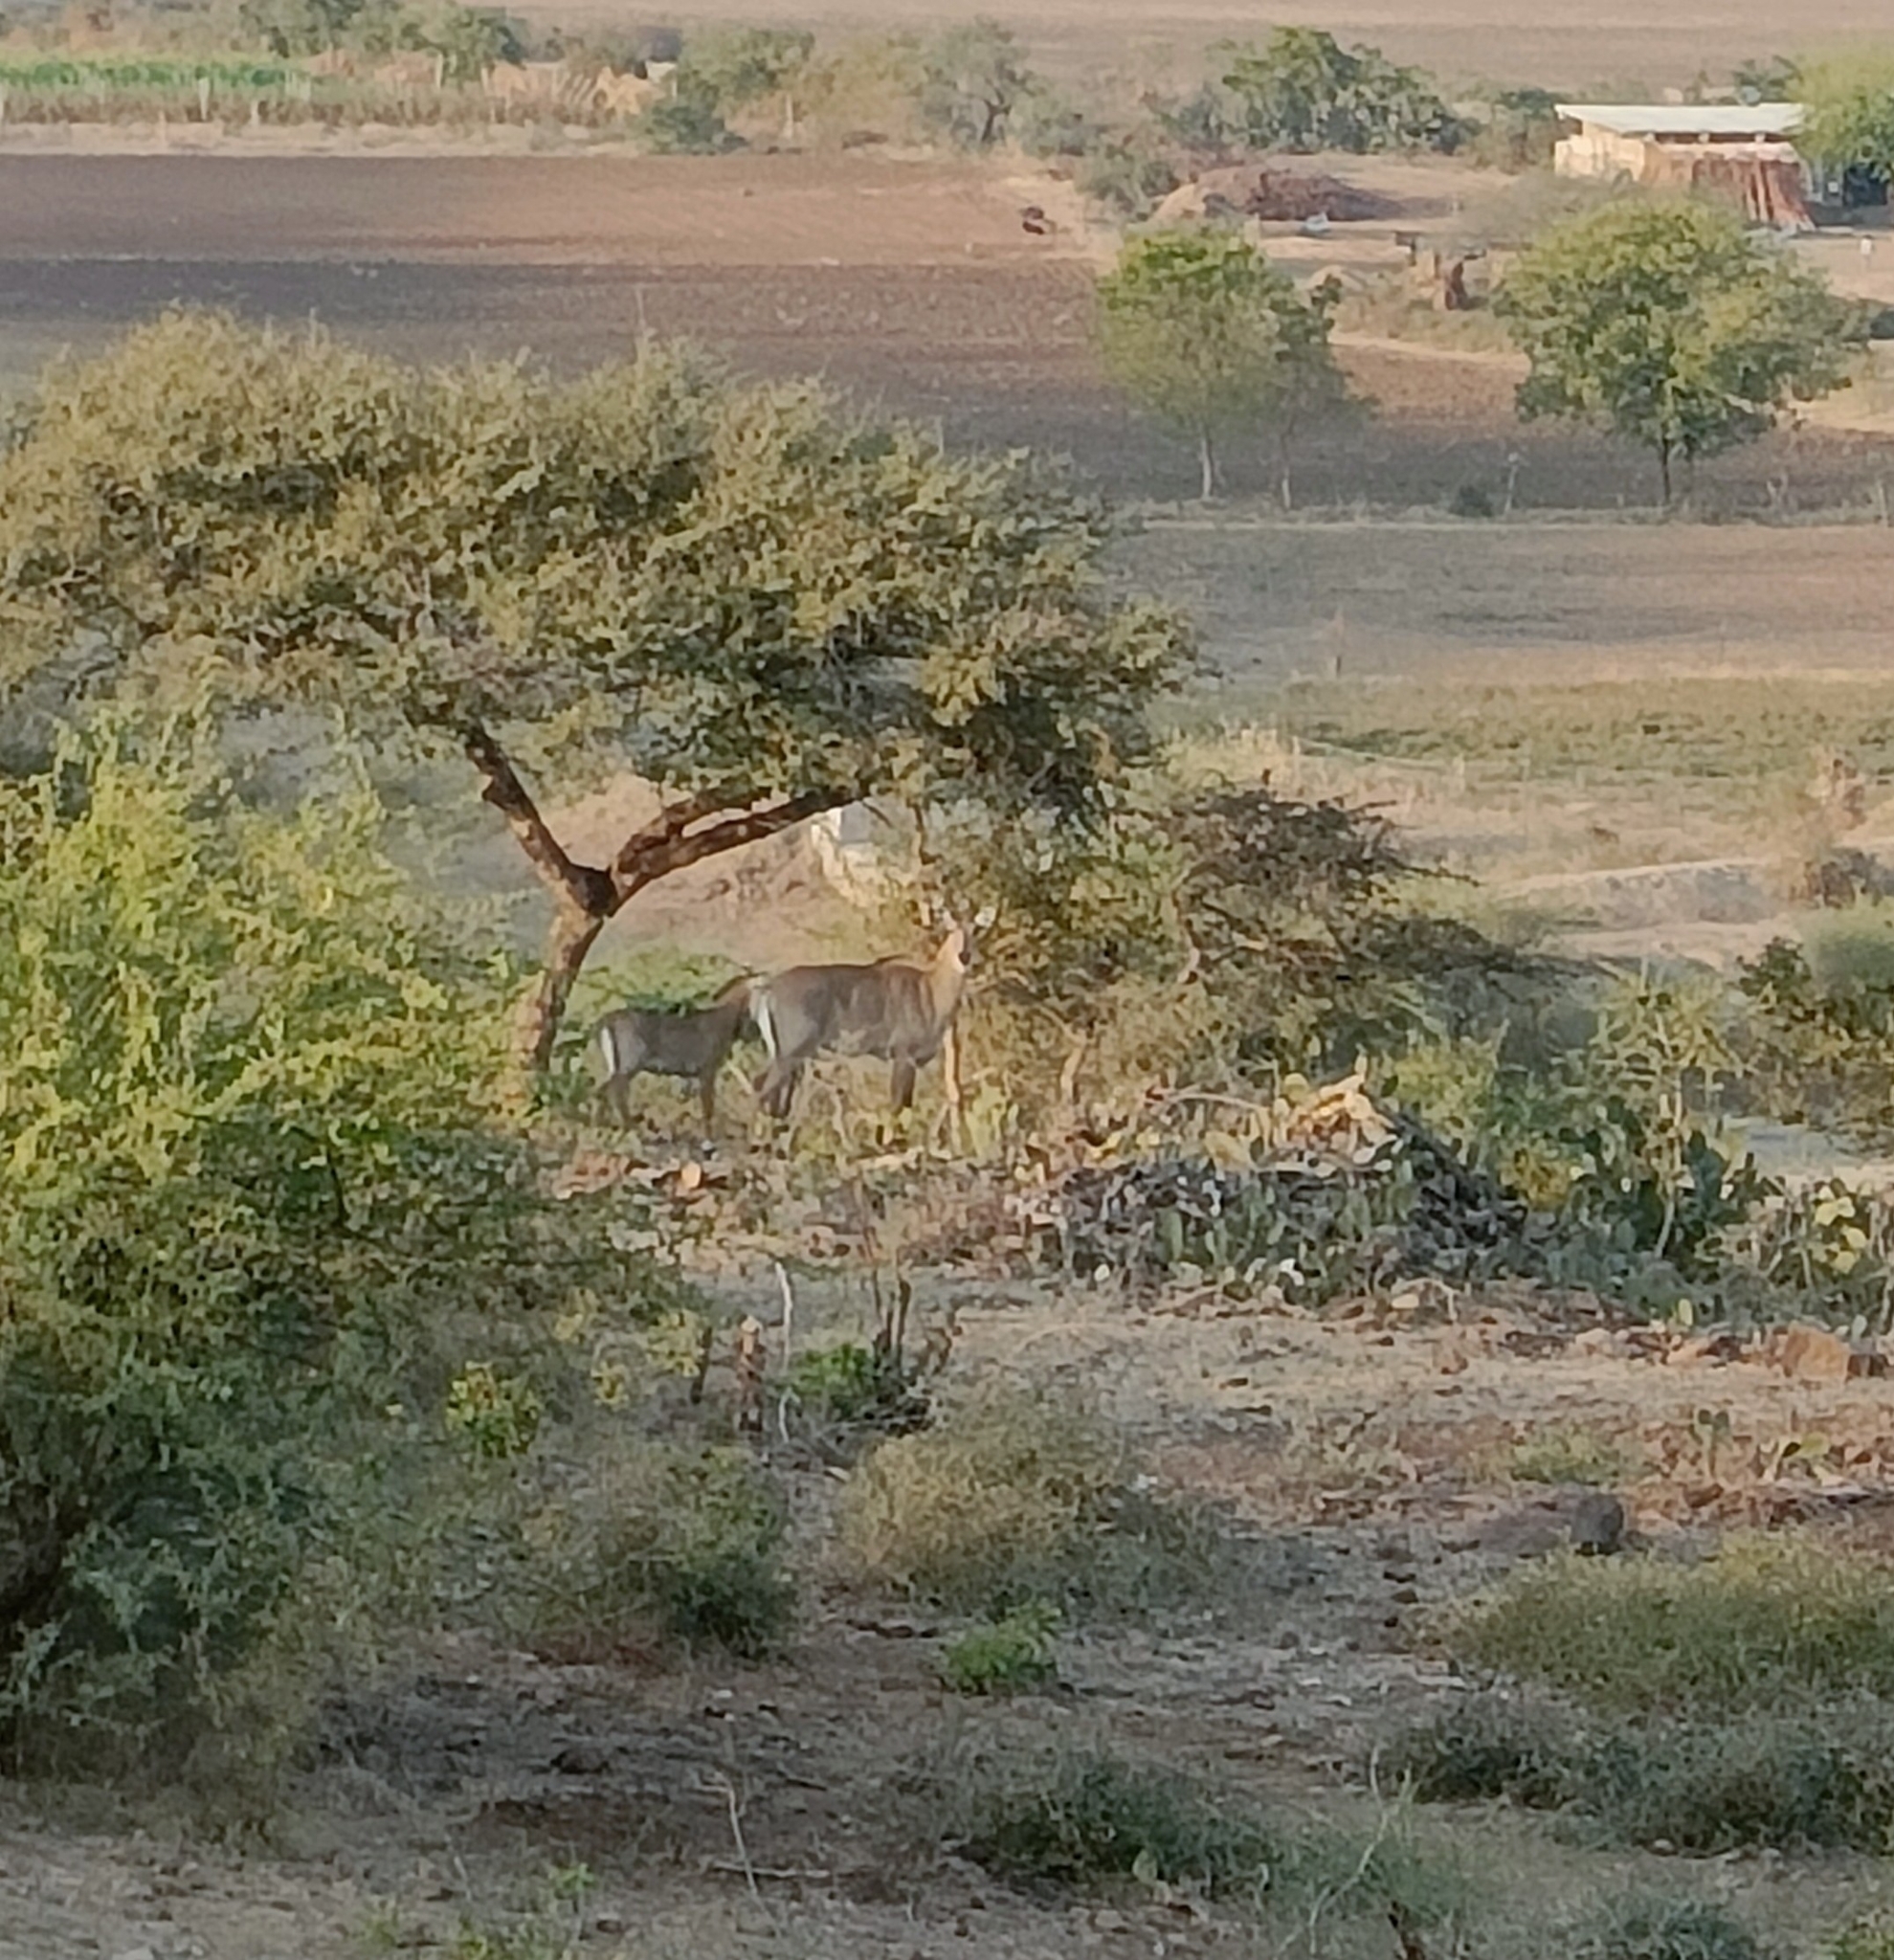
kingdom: Animalia
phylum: Chordata
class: Mammalia
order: Artiodactyla
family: Bovidae
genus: Boselaphus
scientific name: Boselaphus tragocamelus
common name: Nilgai
